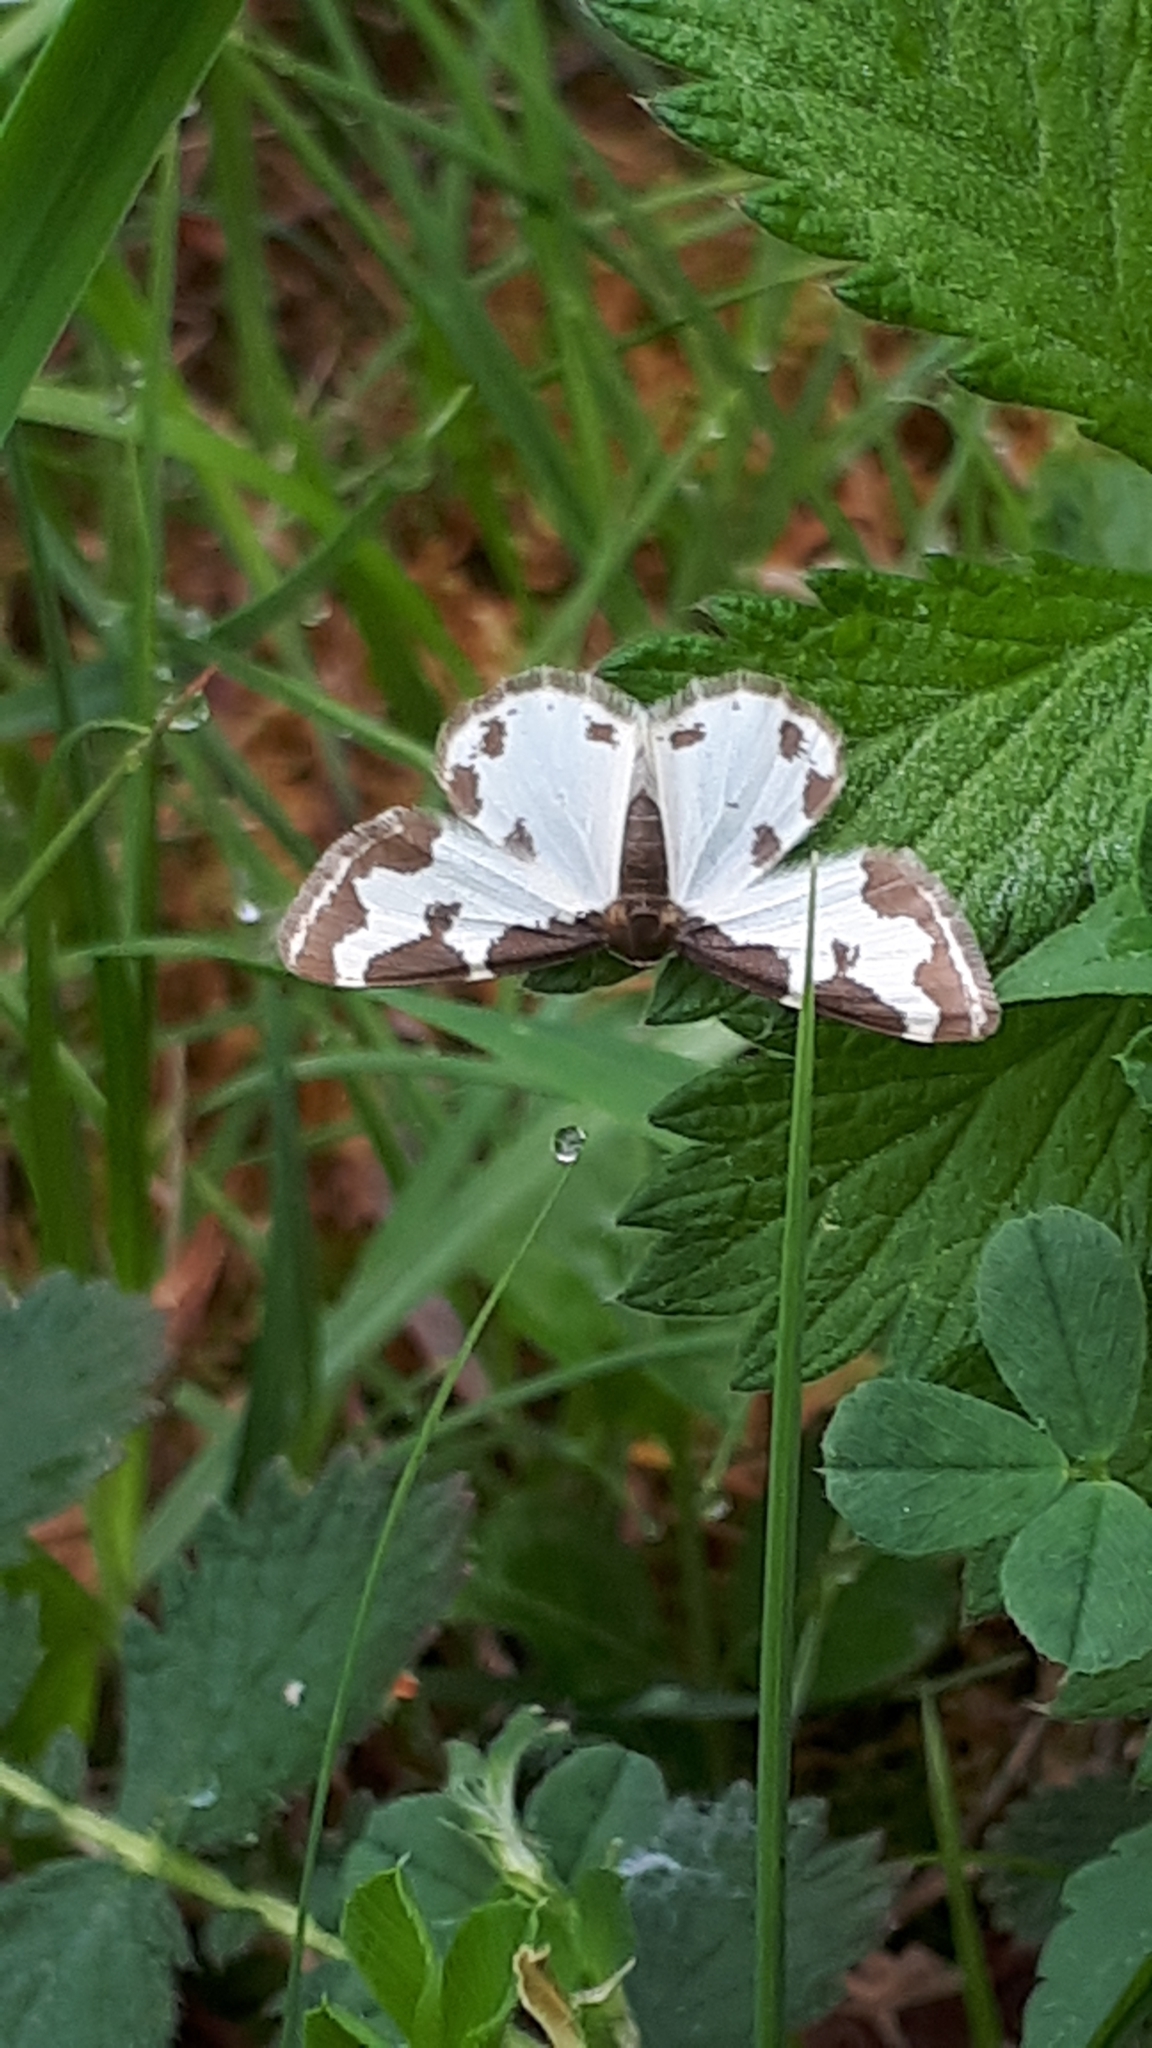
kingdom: Animalia
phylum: Arthropoda
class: Insecta
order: Lepidoptera
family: Geometridae
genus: Lomaspilis
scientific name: Lomaspilis marginata
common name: Clouded border
